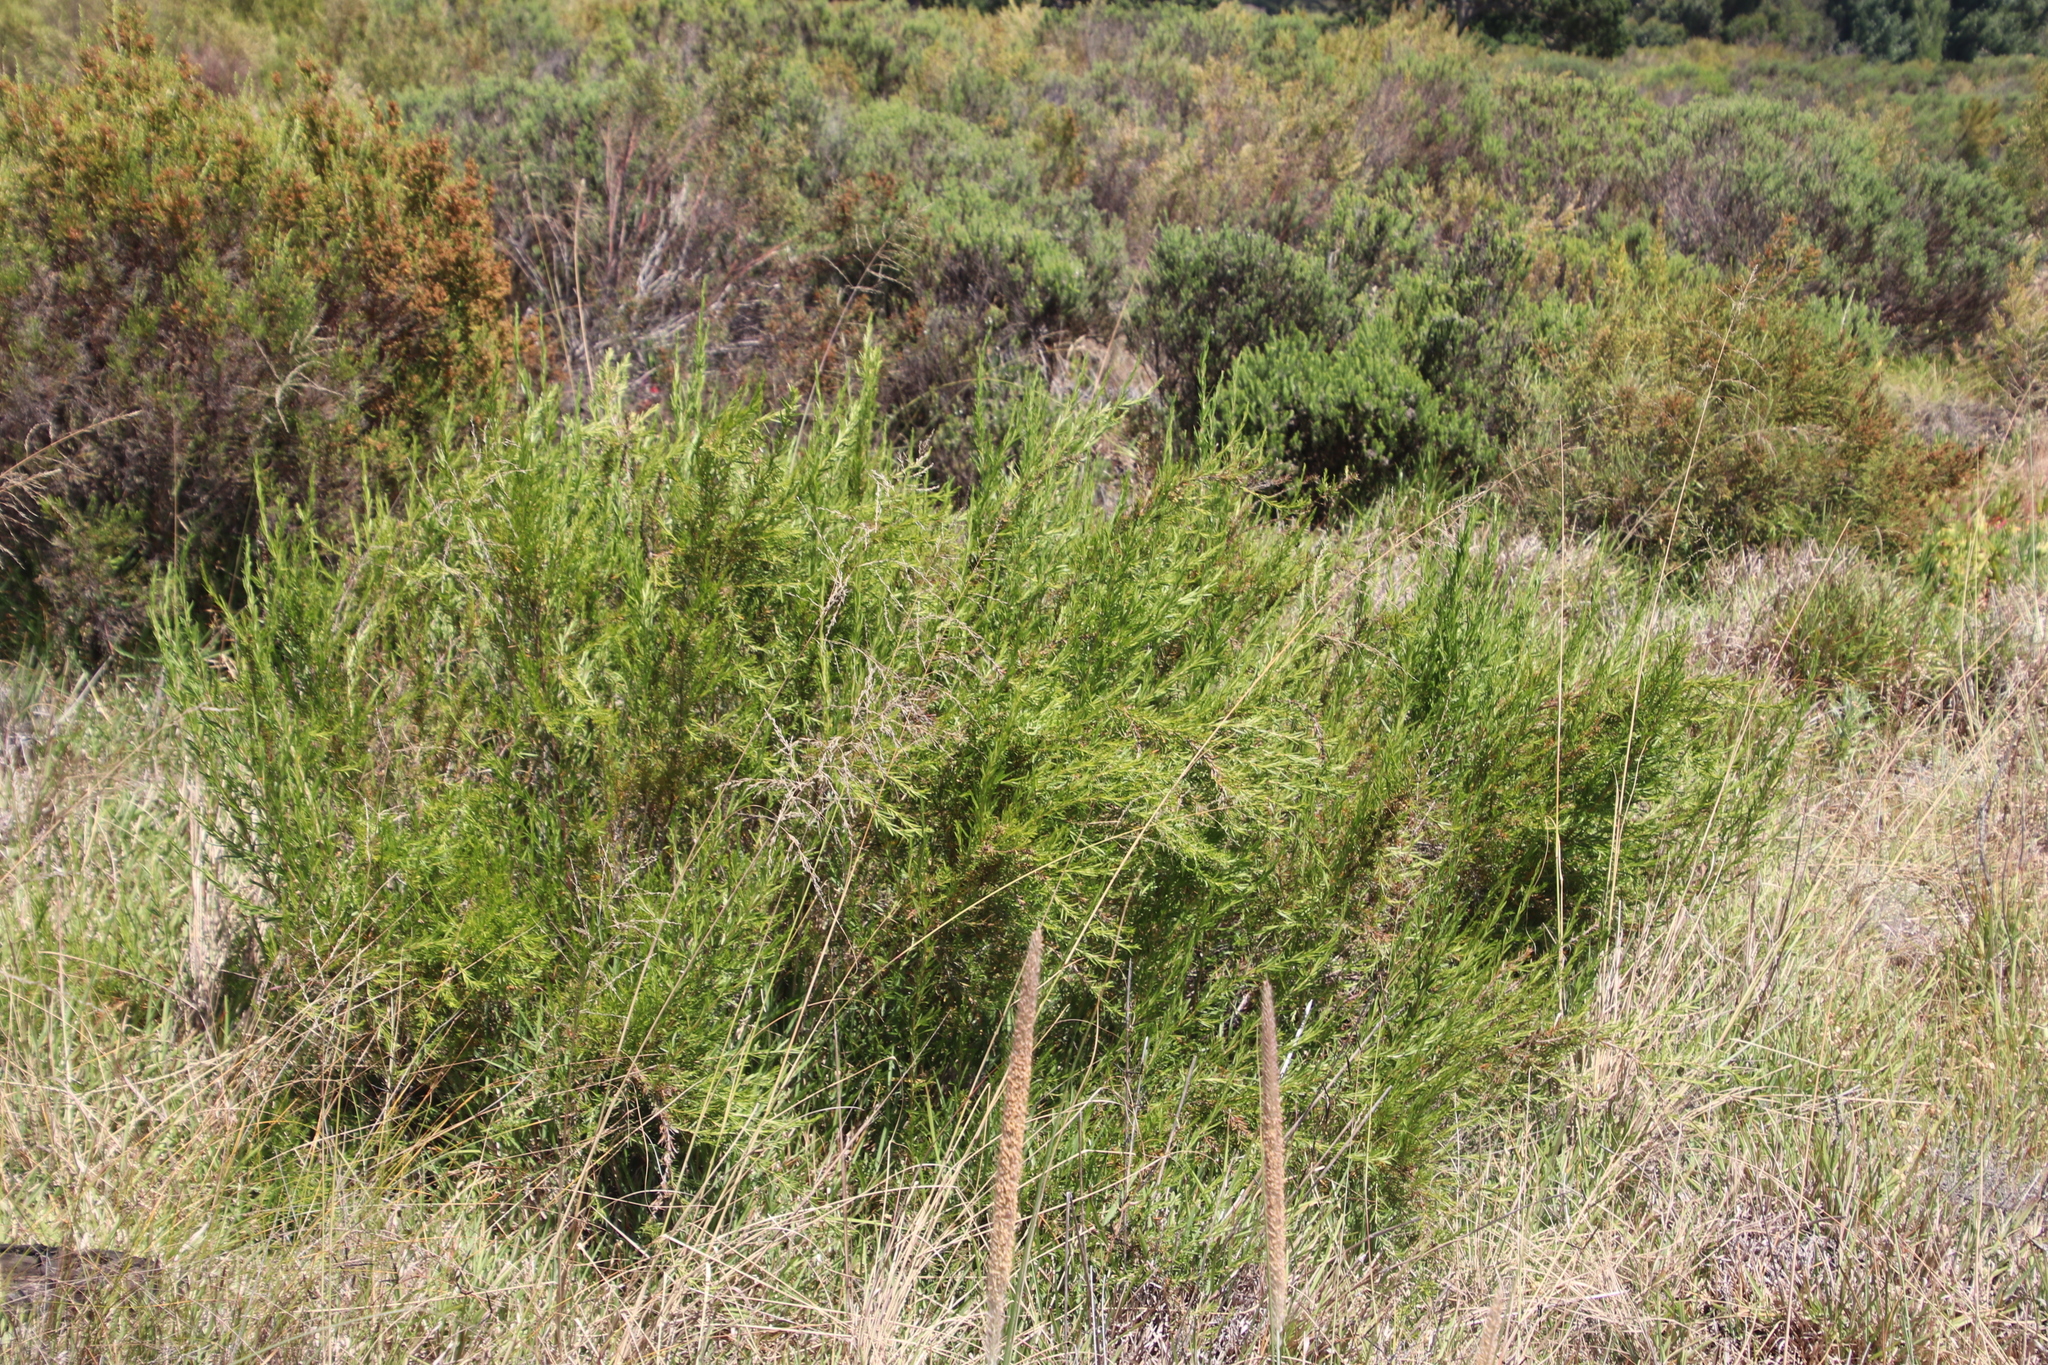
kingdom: Plantae
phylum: Tracheophyta
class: Magnoliopsida
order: Rosales
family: Rosaceae
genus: Cliffortia
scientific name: Cliffortia strobilifera
